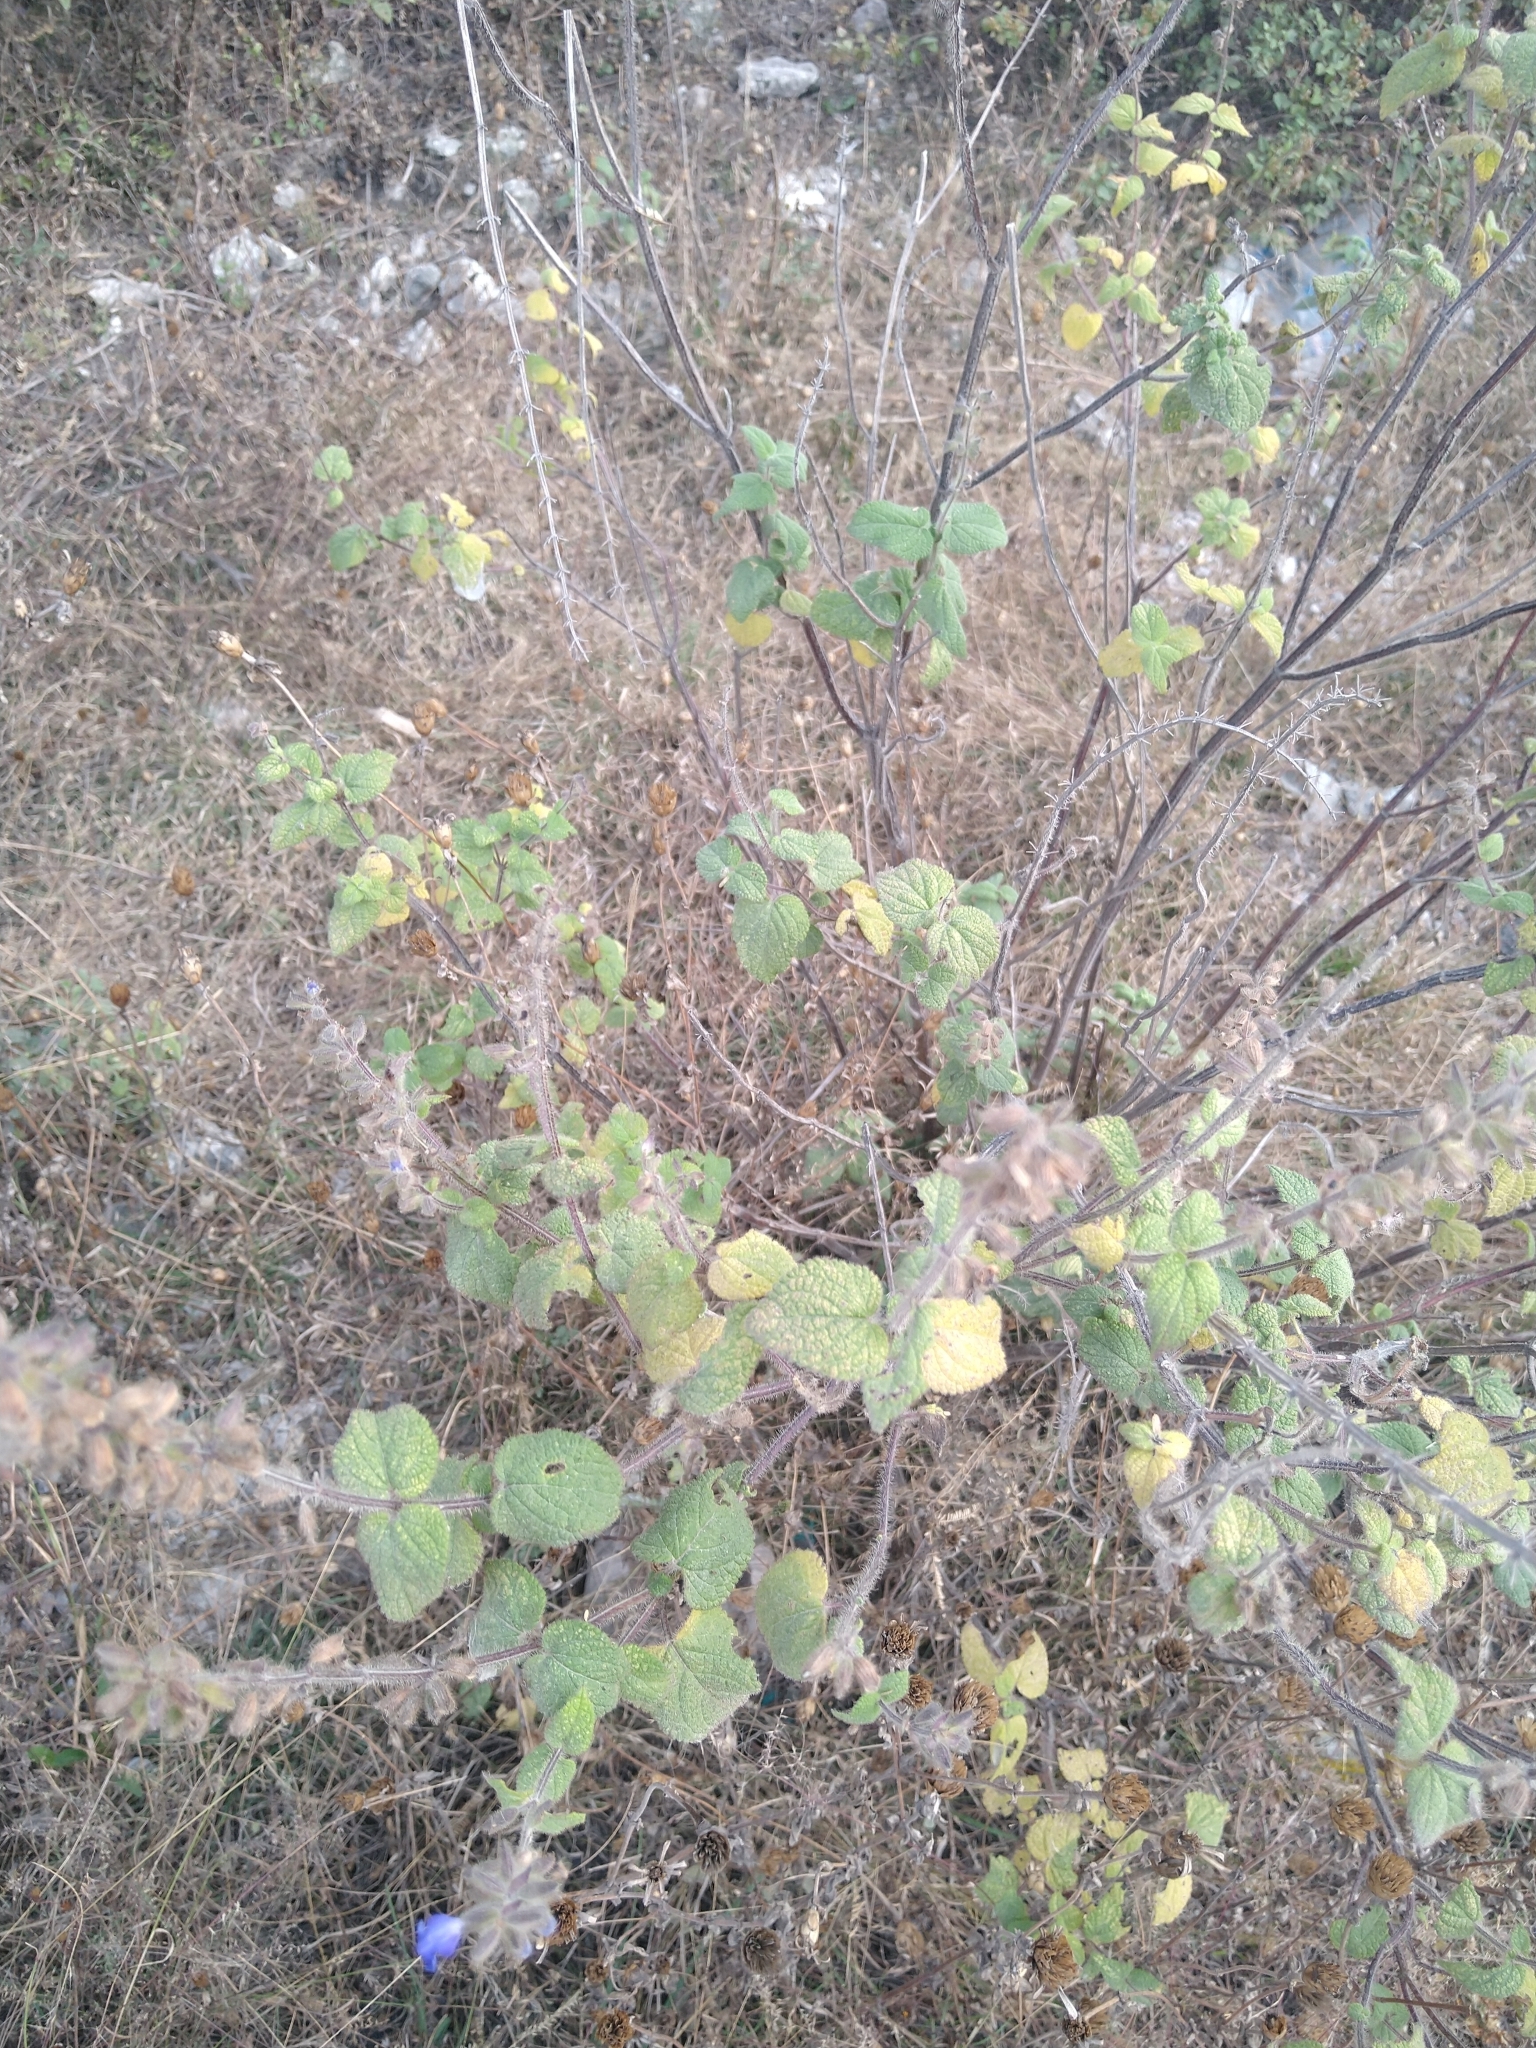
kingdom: Plantae
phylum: Tracheophyta
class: Magnoliopsida
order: Lamiales
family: Lamiaceae
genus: Salvia
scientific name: Salvia circinnata
